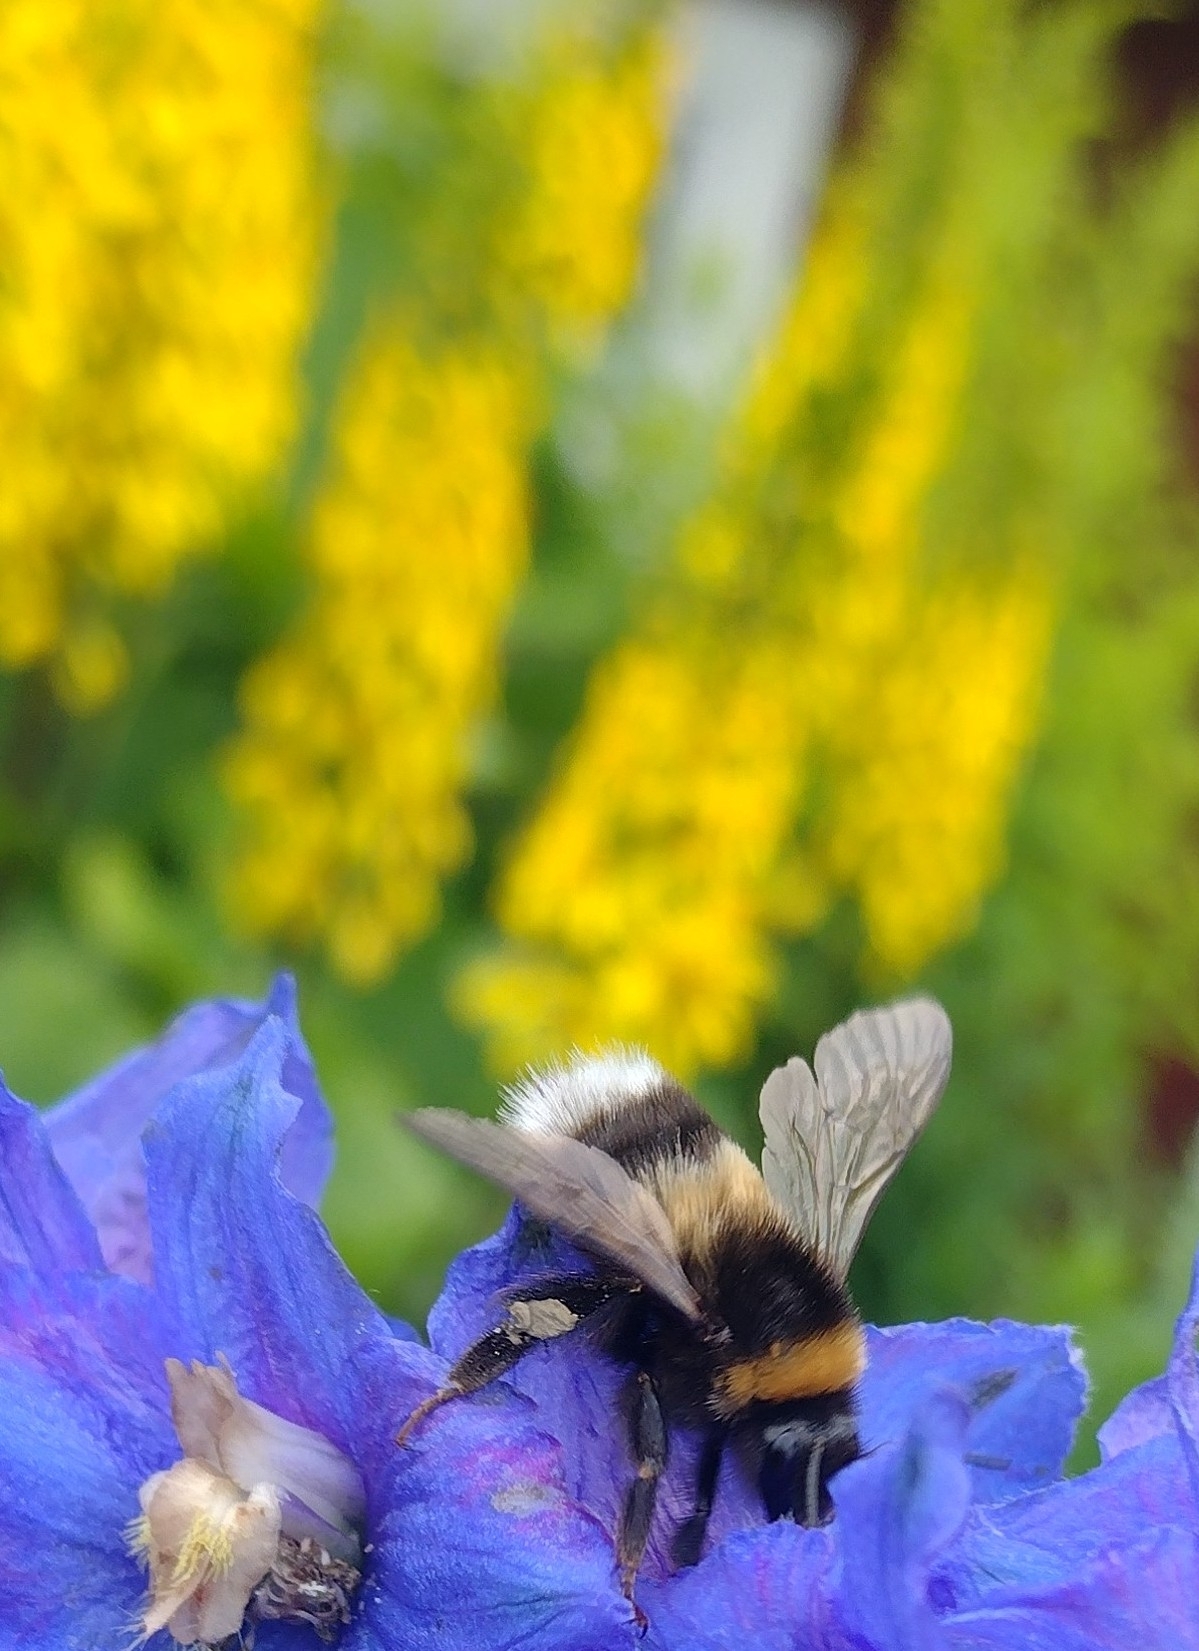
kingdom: Animalia
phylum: Arthropoda
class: Insecta
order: Hymenoptera
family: Apidae
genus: Bombus
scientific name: Bombus sporadicus
